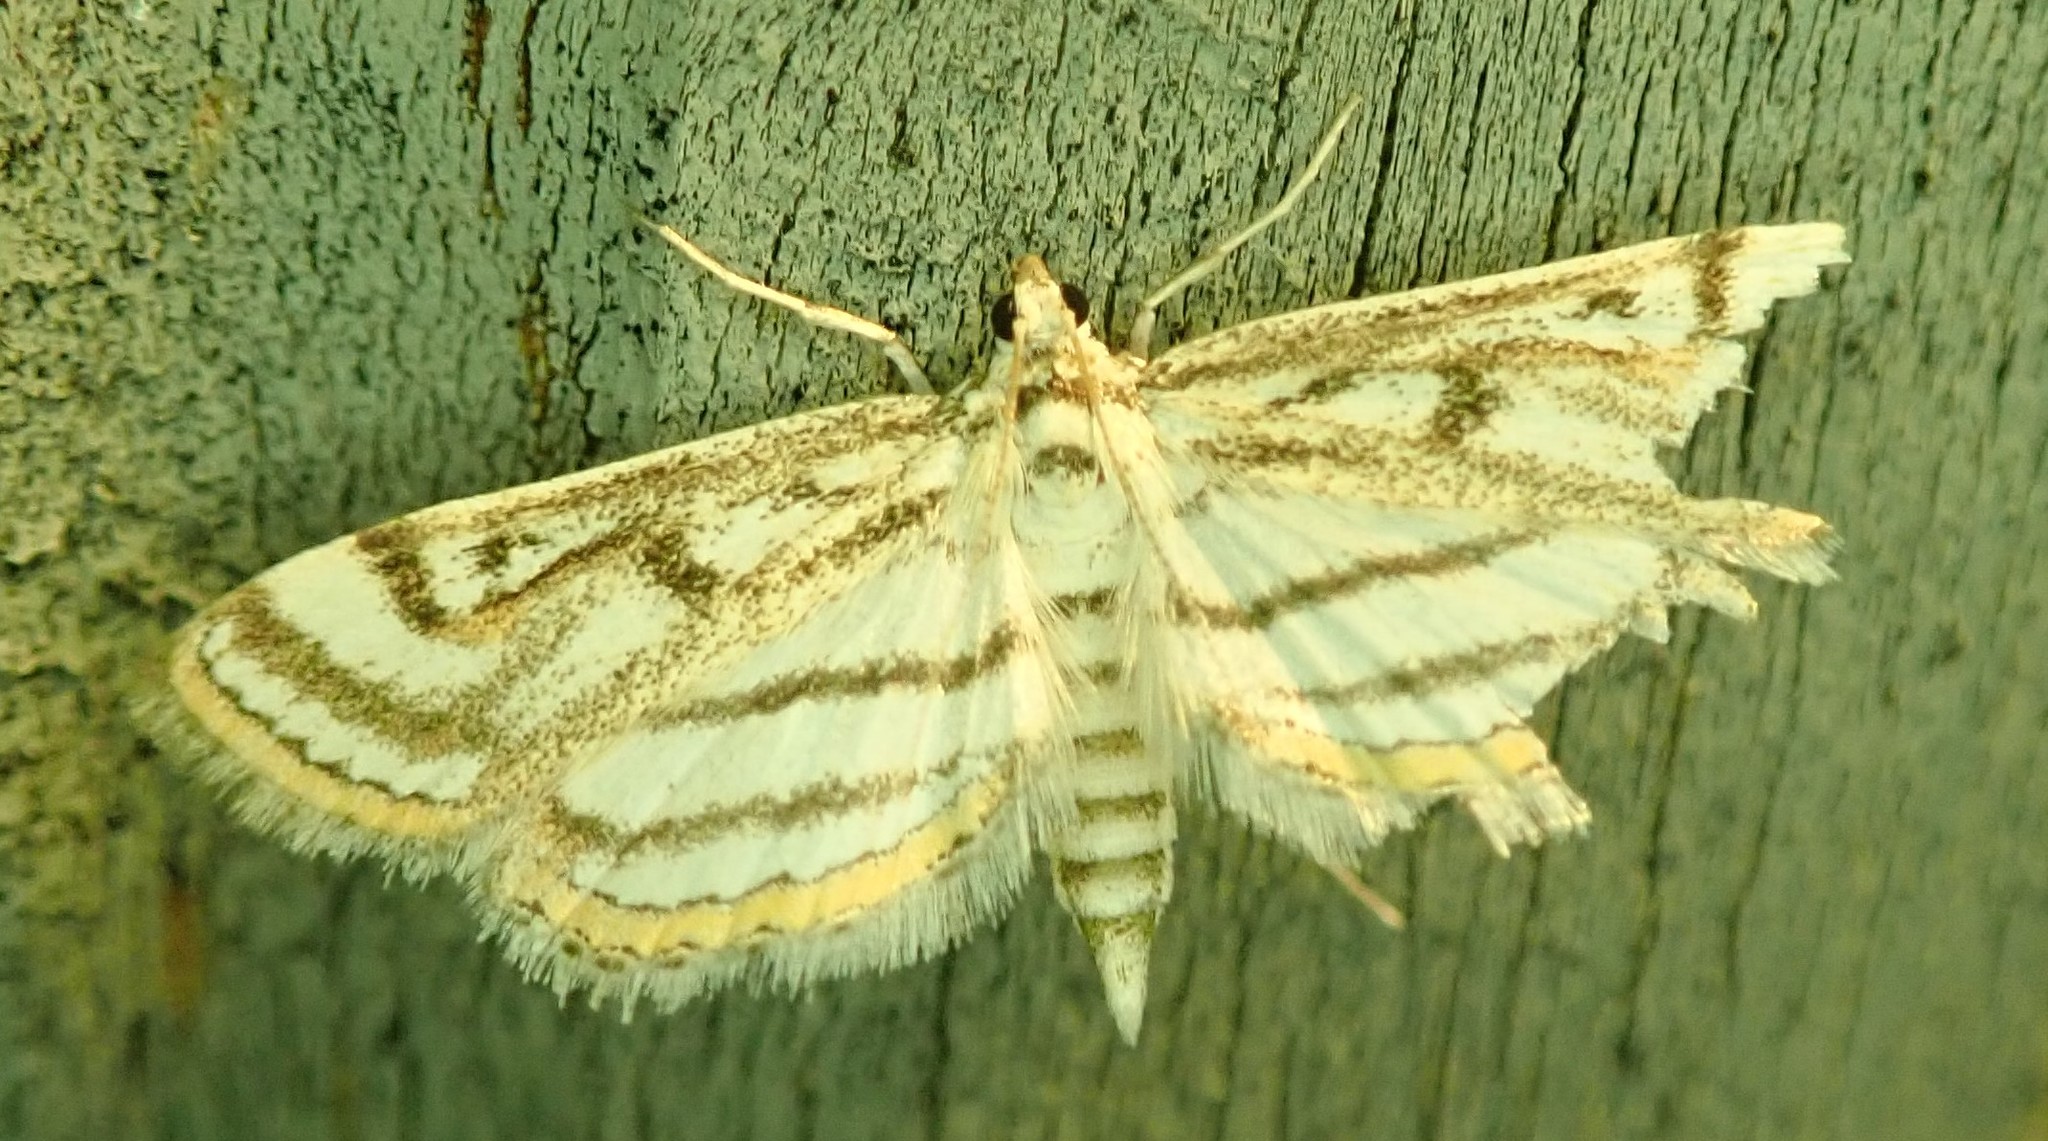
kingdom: Animalia
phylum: Arthropoda
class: Insecta
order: Lepidoptera
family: Crambidae
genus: Parapoynx
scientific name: Parapoynx badiusalis
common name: Chestnut-marked pondweed moth
